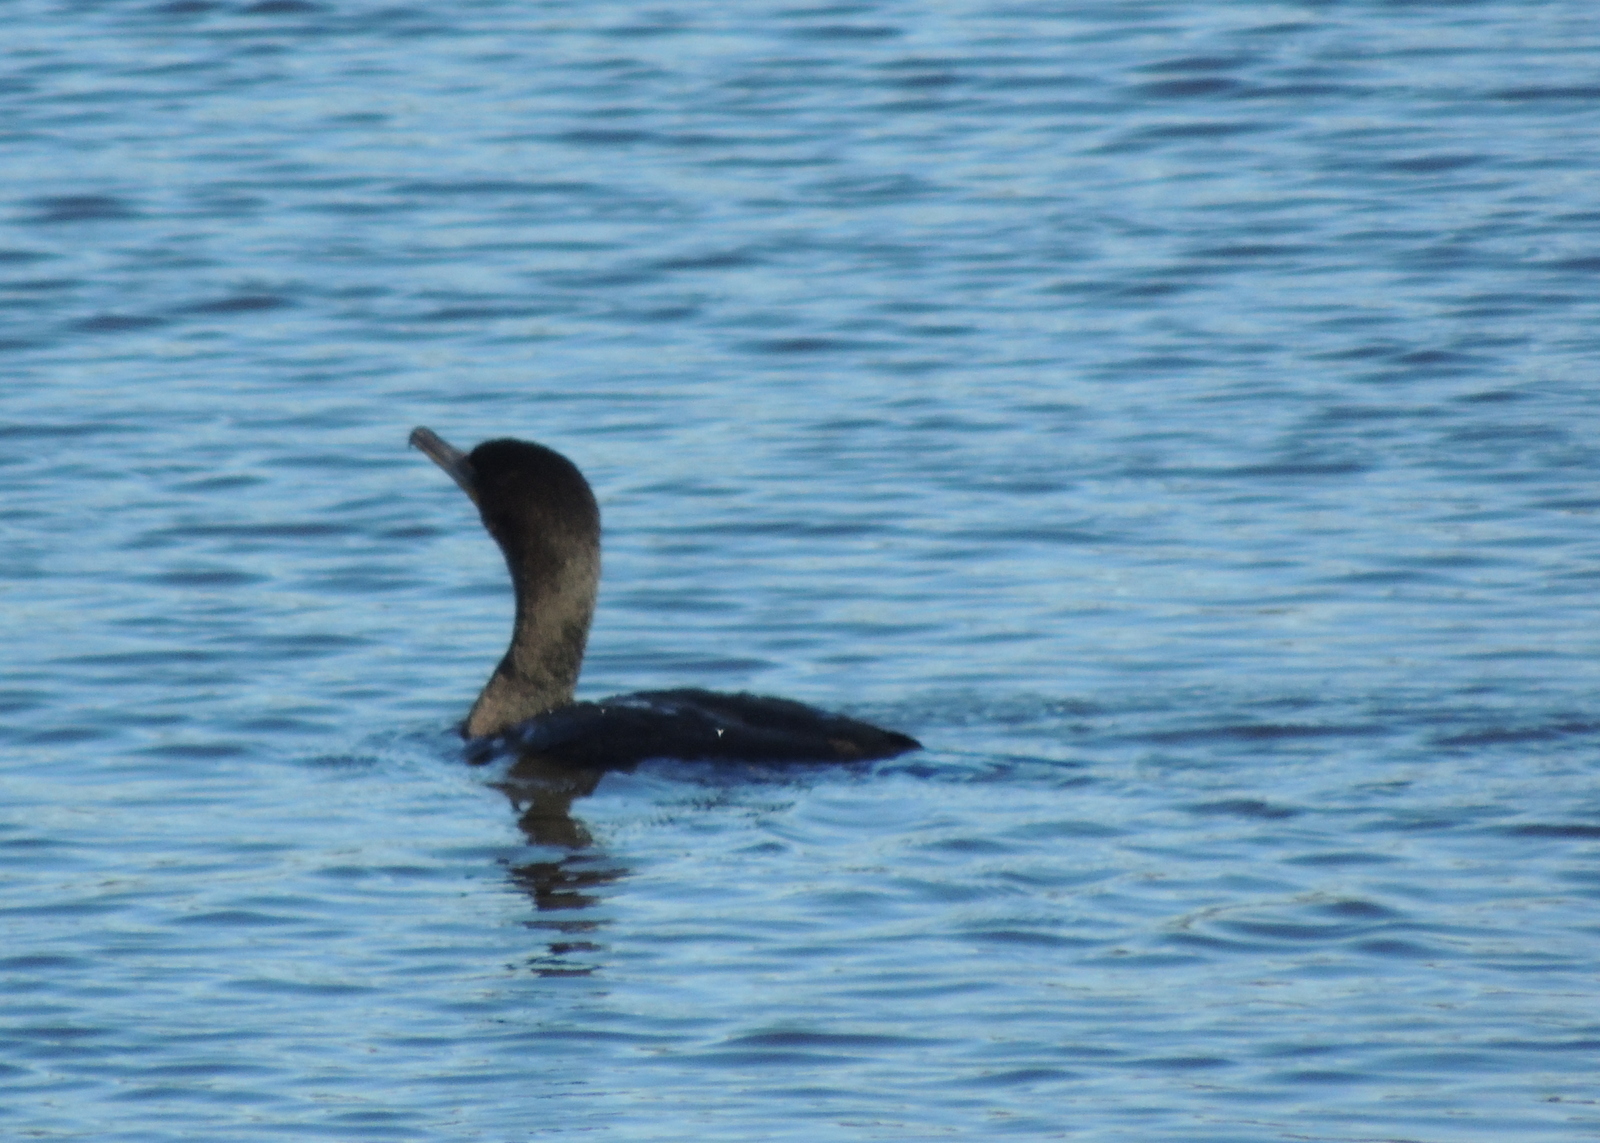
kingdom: Animalia
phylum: Chordata
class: Aves
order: Suliformes
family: Phalacrocoracidae
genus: Phalacrocorax
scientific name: Phalacrocorax auritus
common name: Double-crested cormorant
